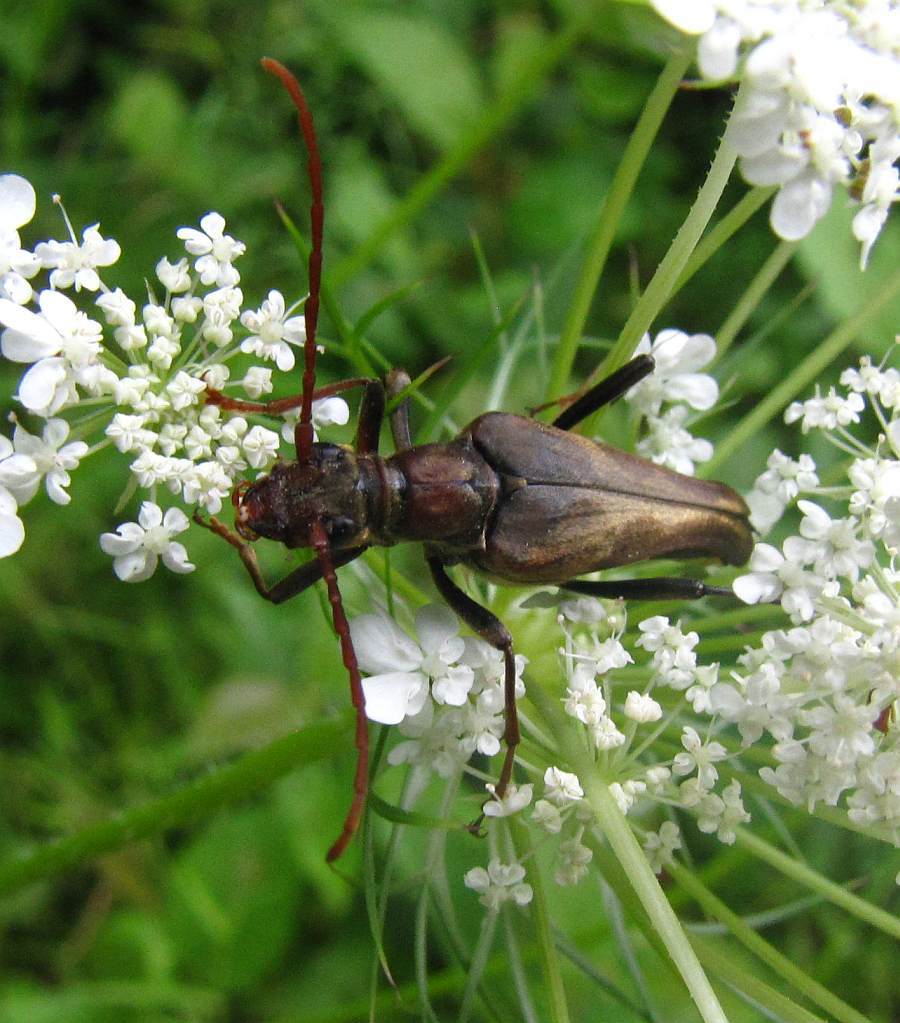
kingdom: Animalia
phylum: Arthropoda
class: Insecta
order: Coleoptera
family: Cerambycidae
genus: Bellamira
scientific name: Bellamira scalaris
